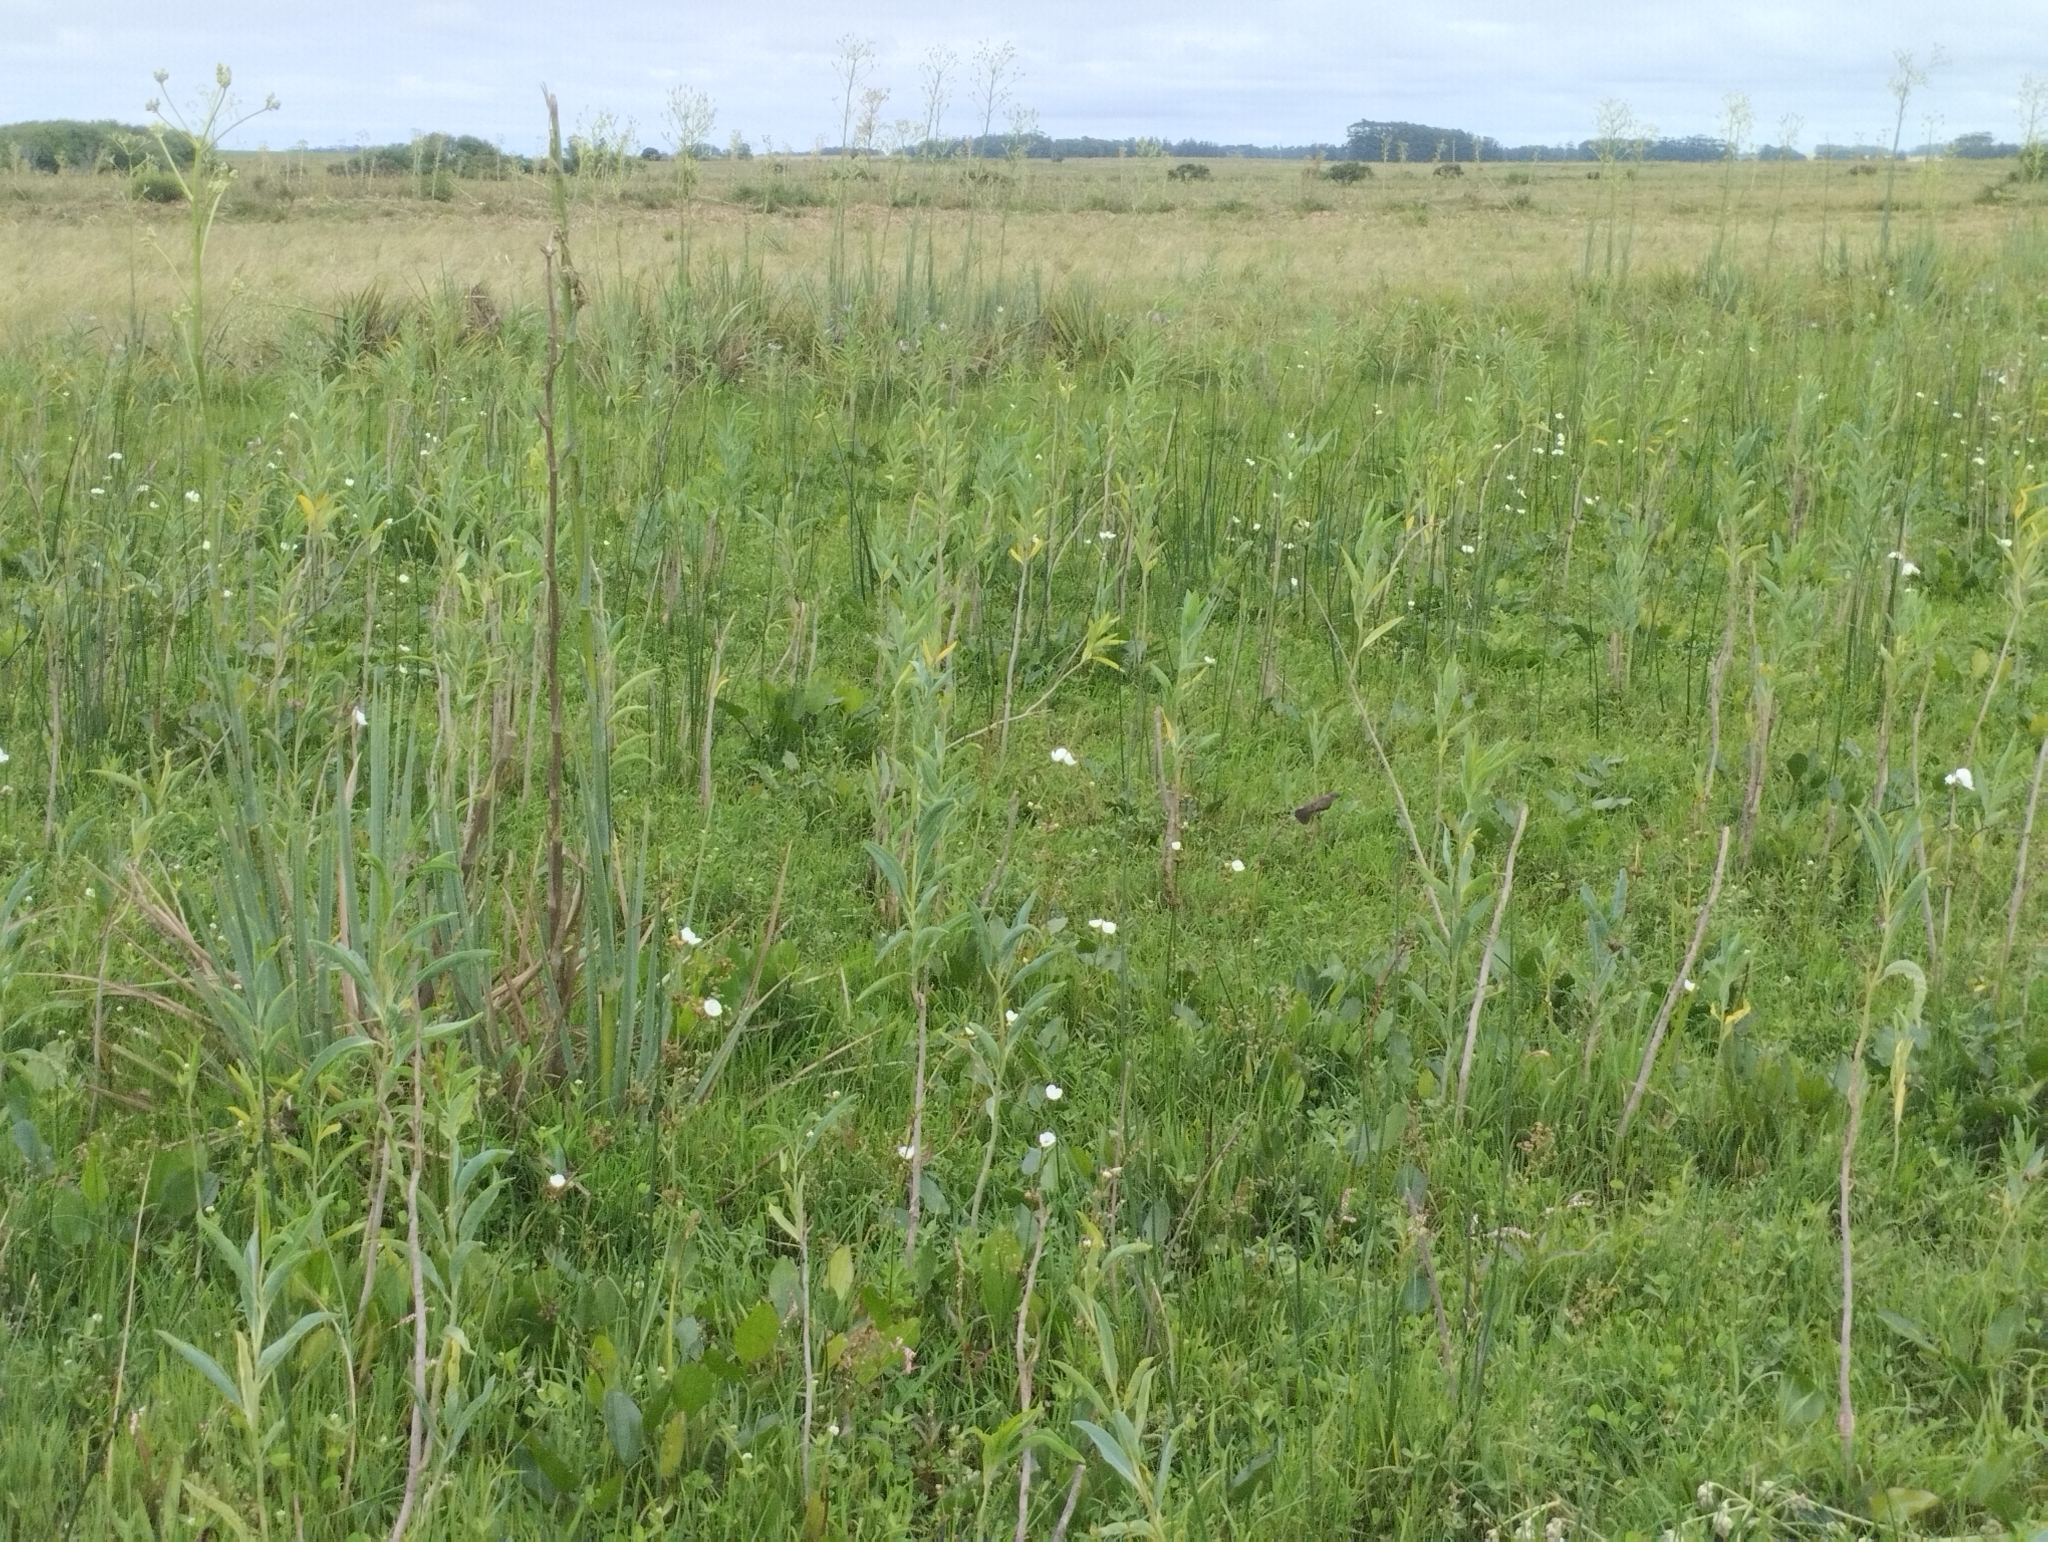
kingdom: Animalia
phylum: Chordata
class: Aves
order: Passeriformes
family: Tyrannidae
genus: Serpophaga
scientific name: Serpophaga nigricans
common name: Sooty tyrannulet
